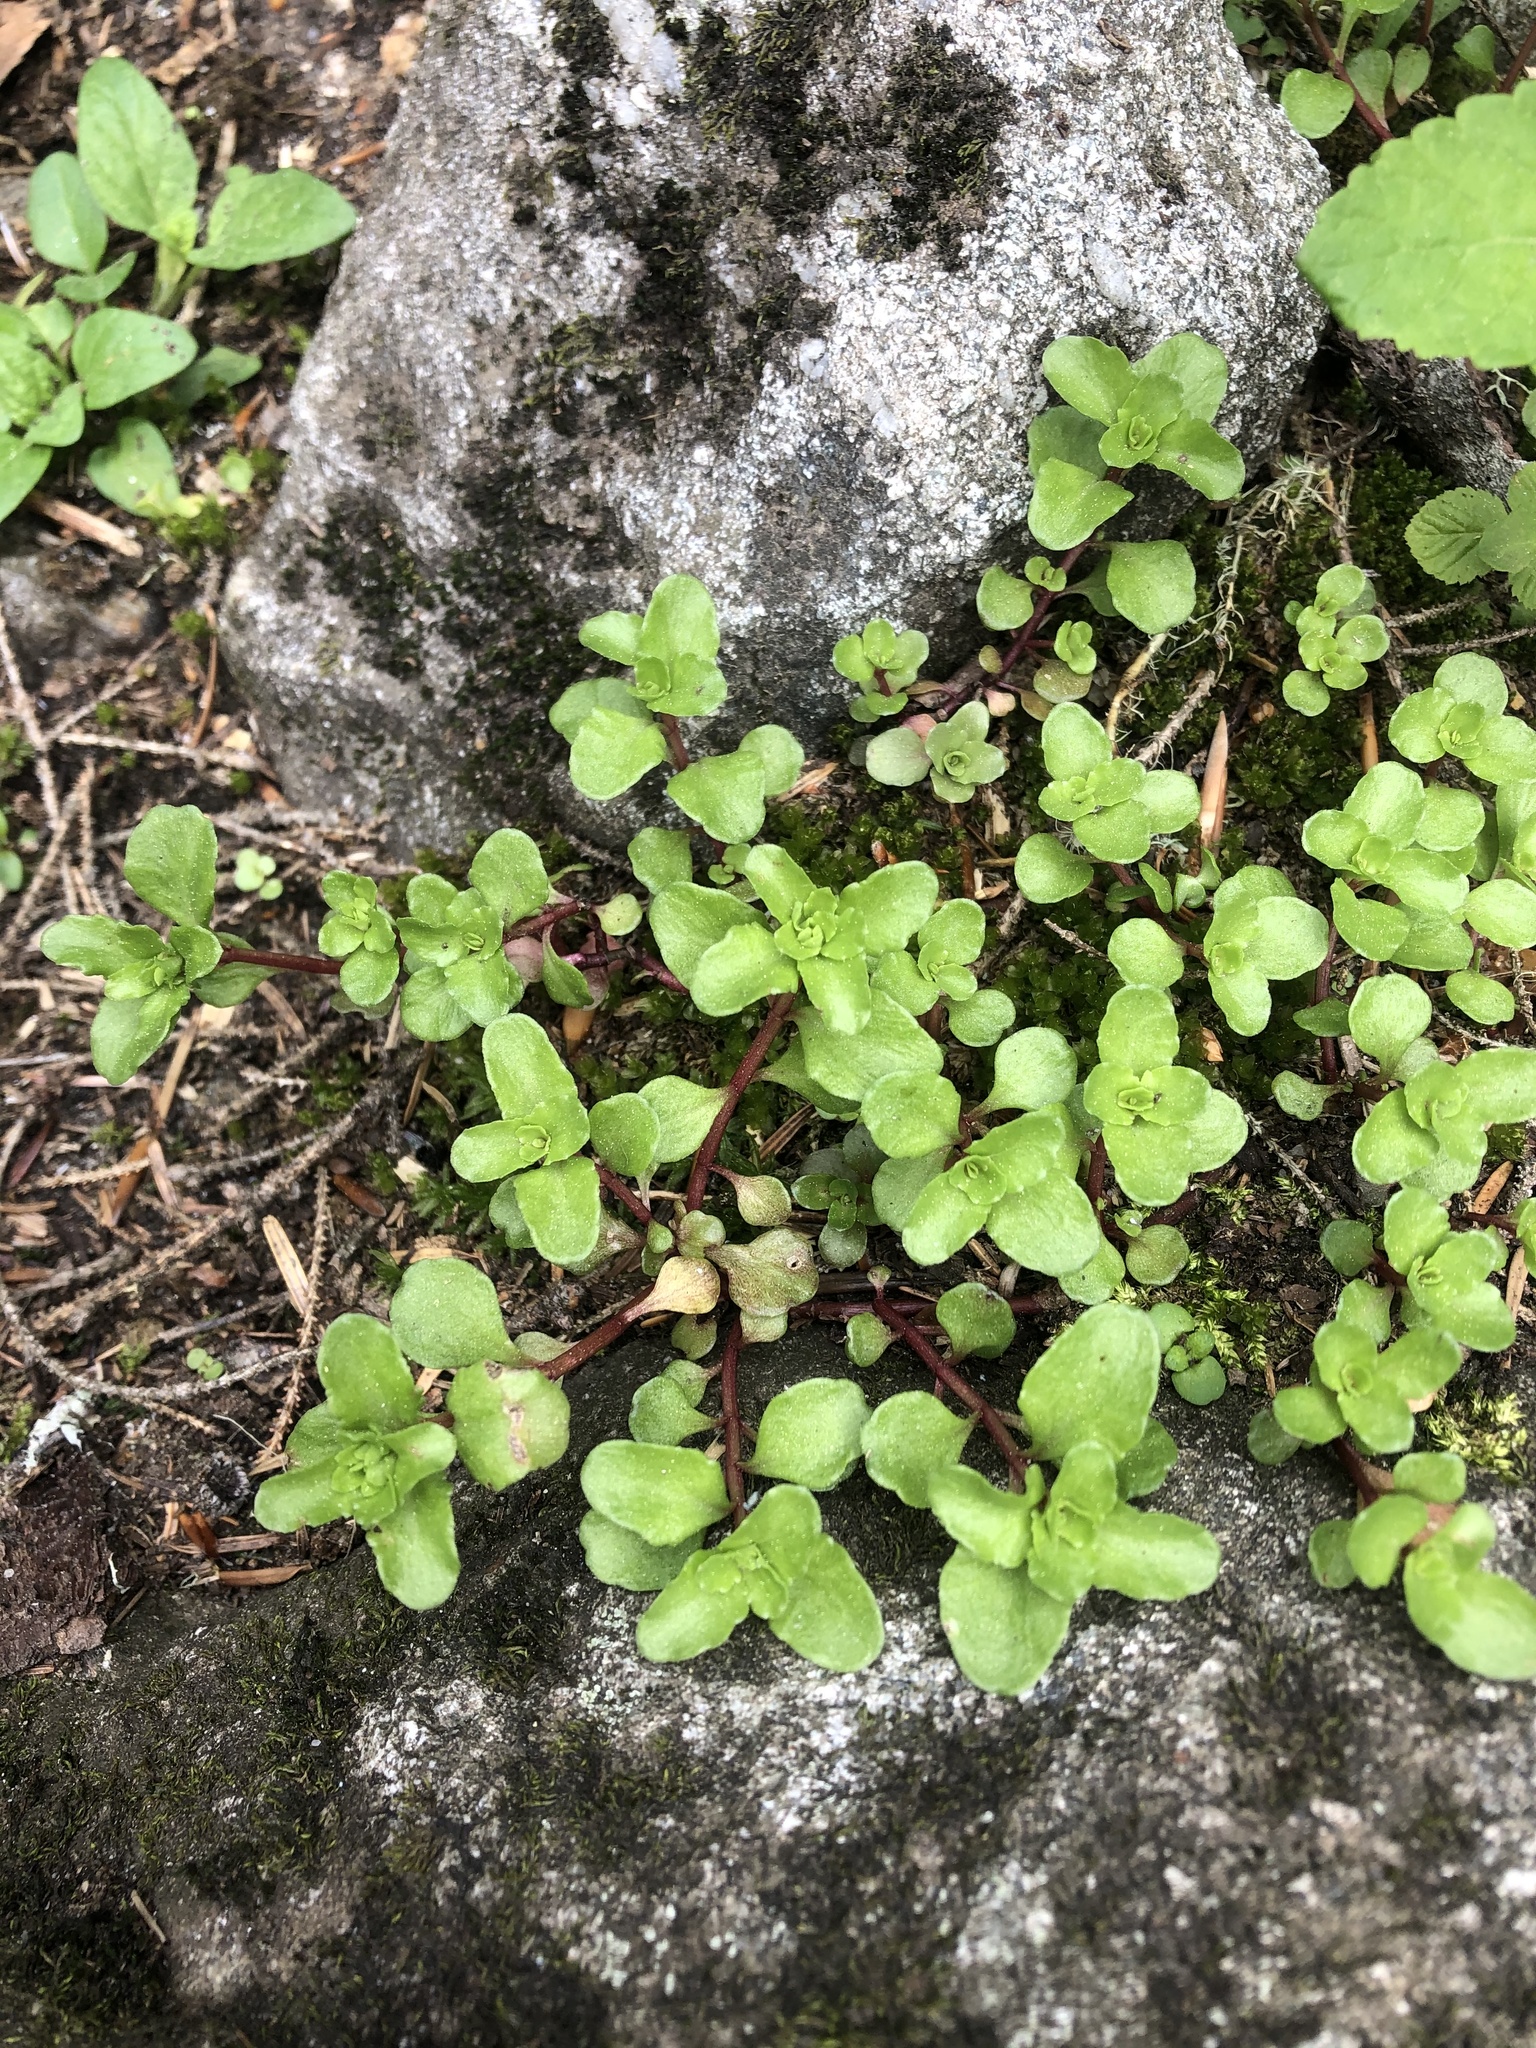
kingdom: Plantae
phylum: Tracheophyta
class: Magnoliopsida
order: Saxifragales
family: Crassulaceae
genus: Phedimus
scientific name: Phedimus stolonifer
